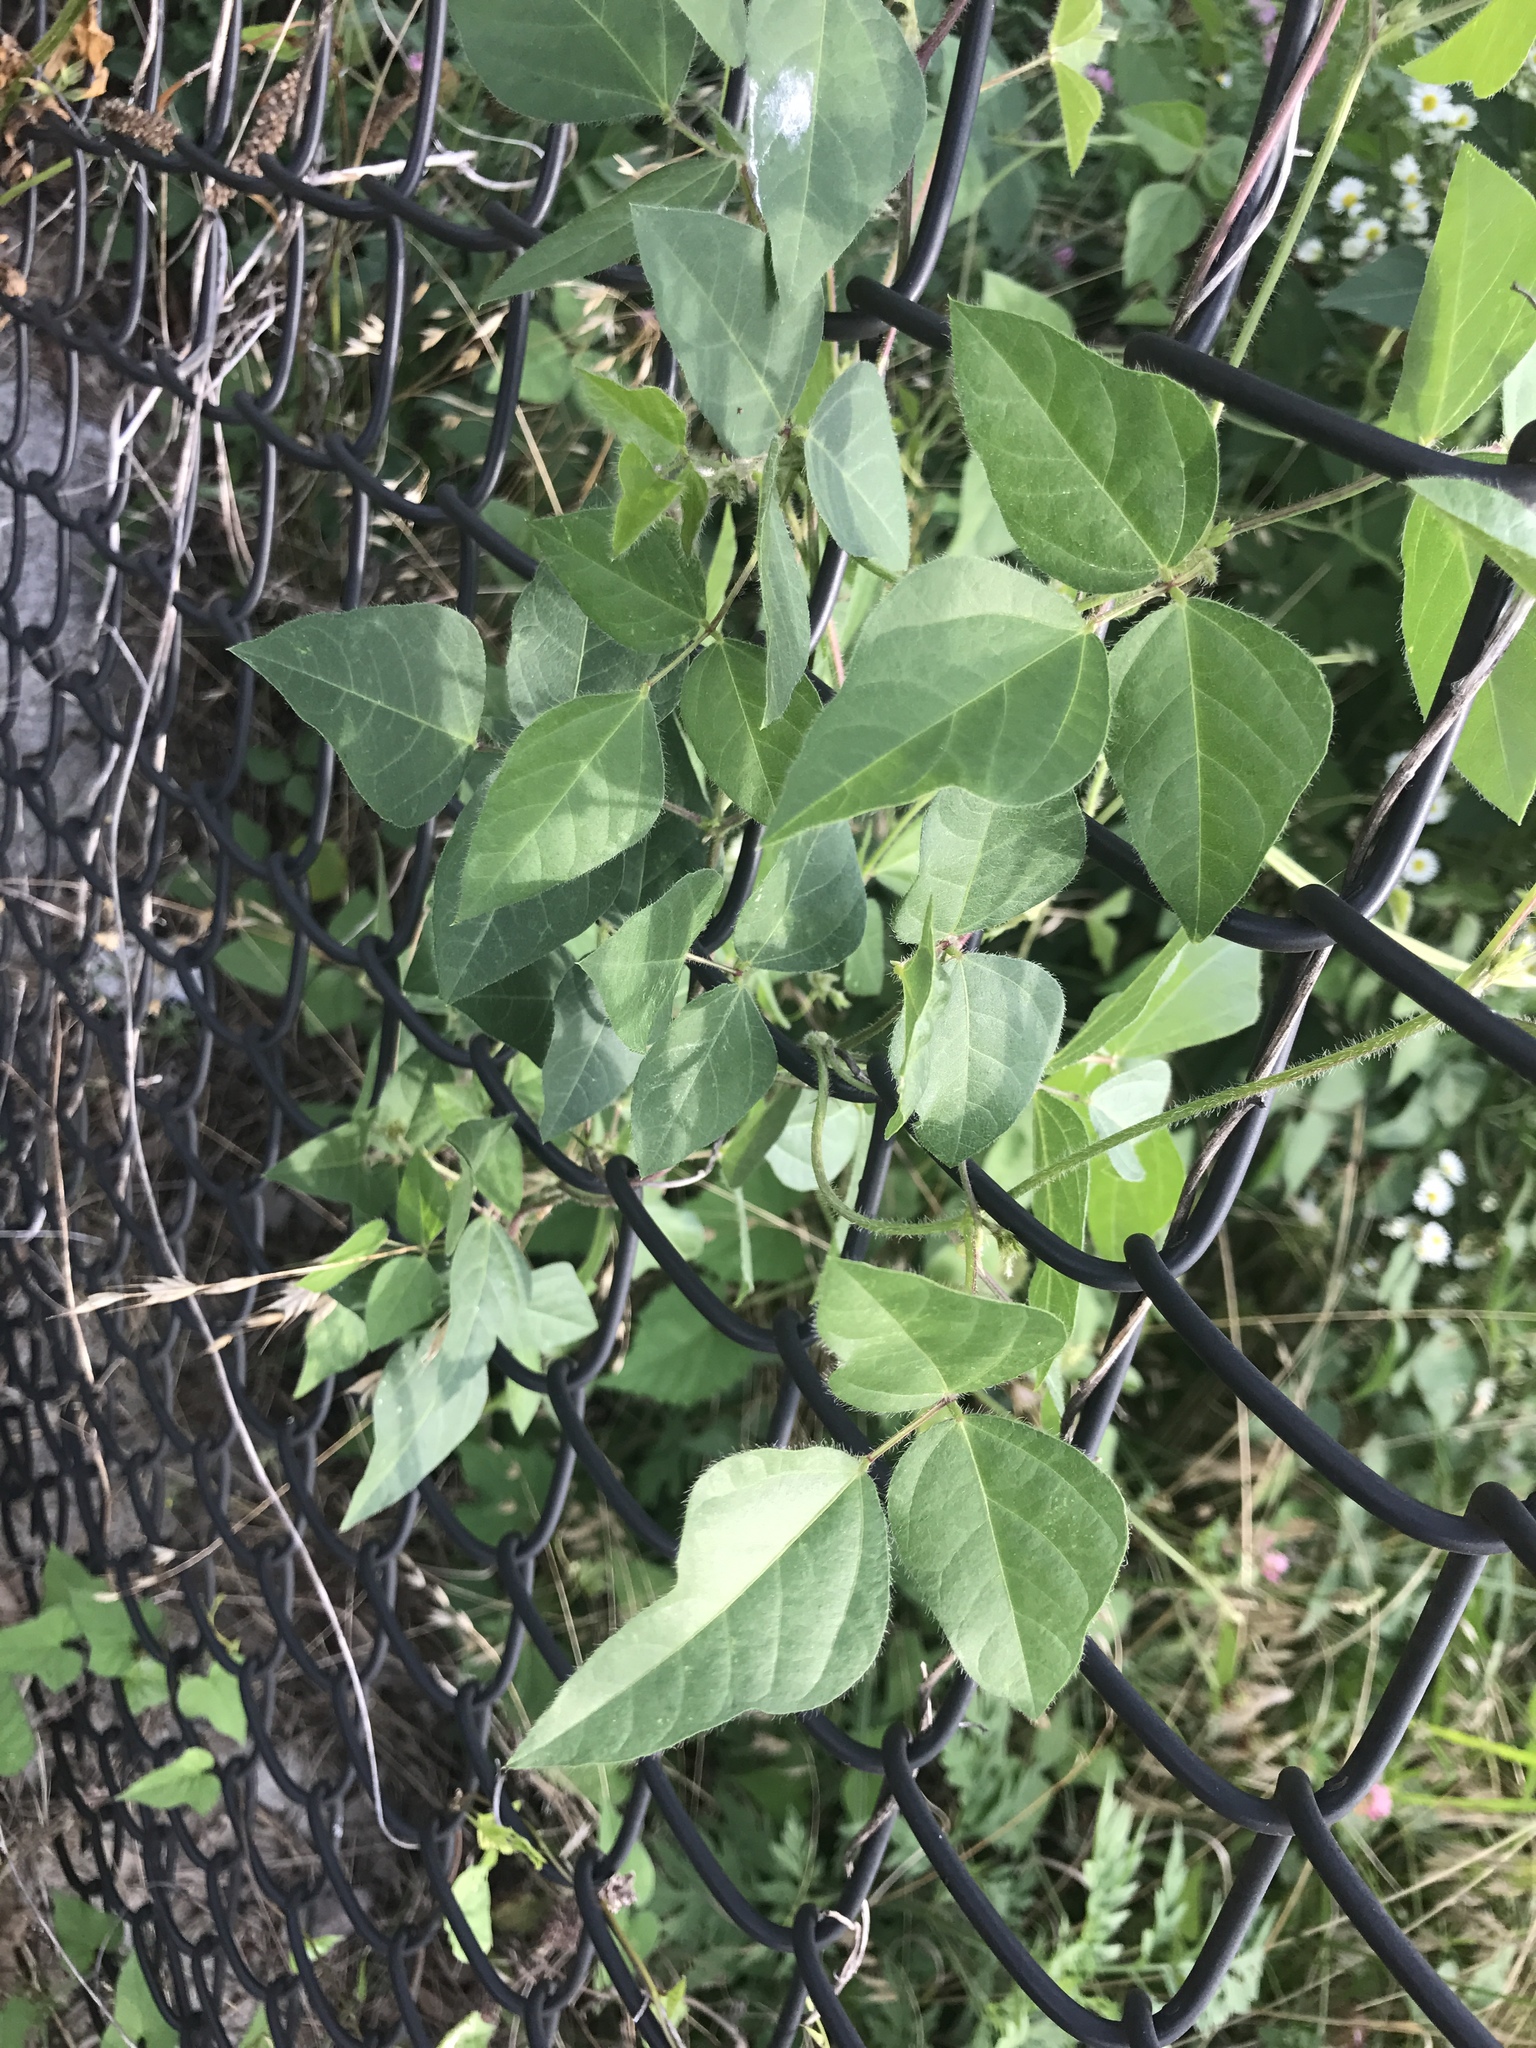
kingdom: Plantae
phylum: Tracheophyta
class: Magnoliopsida
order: Fabales
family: Fabaceae
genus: Strophostyles
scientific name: Strophostyles helvola
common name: Trailing wild bean
